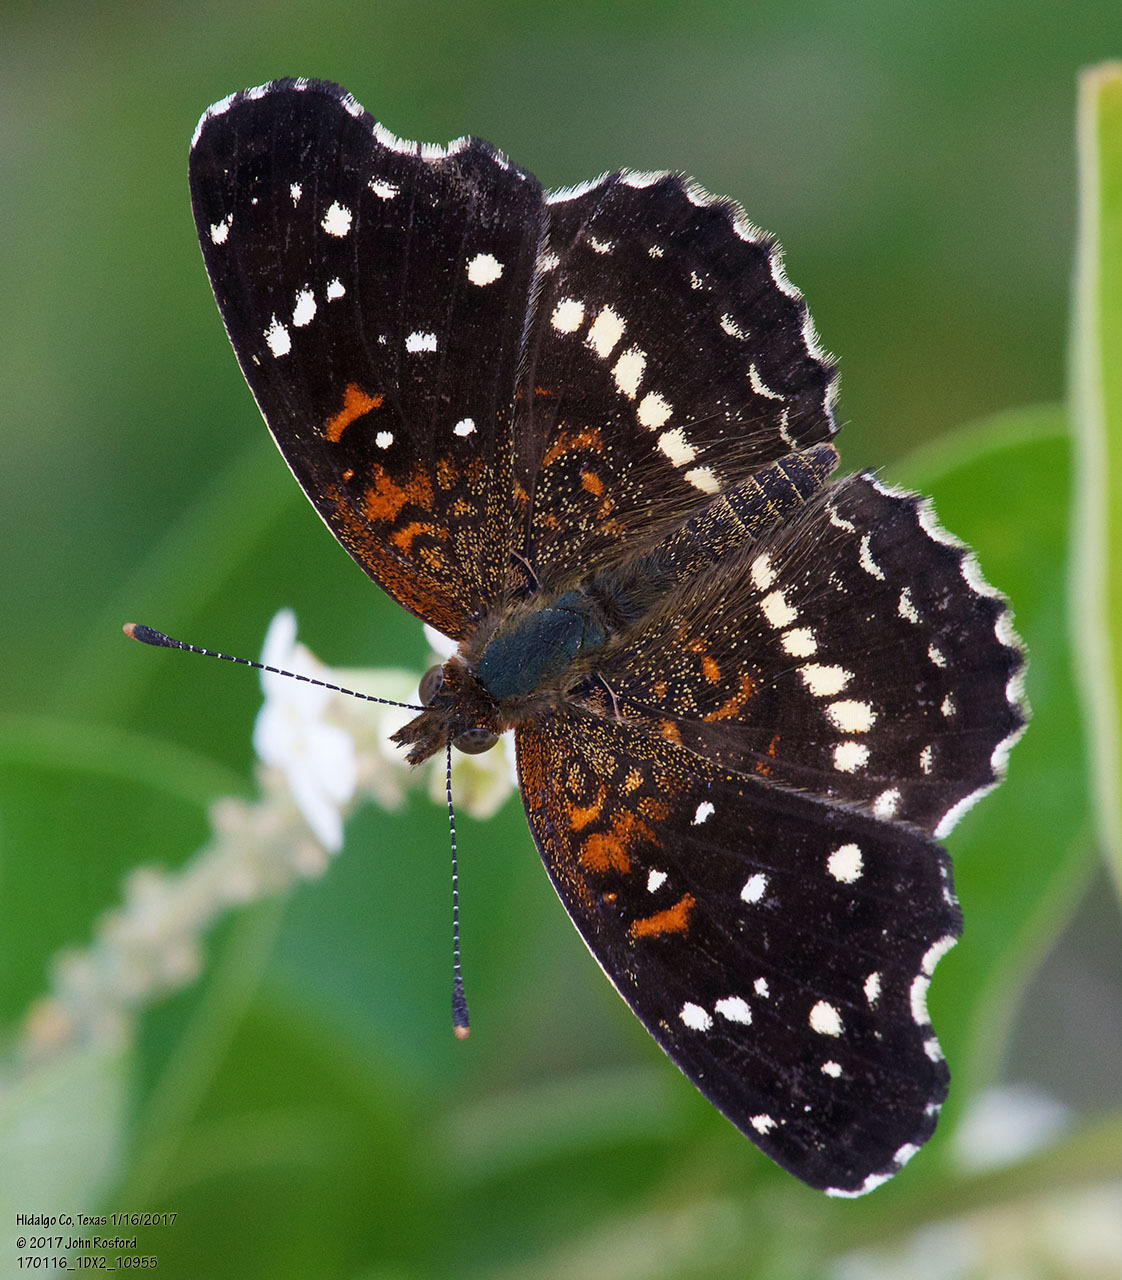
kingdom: Animalia
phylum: Arthropoda
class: Insecta
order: Lepidoptera
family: Nymphalidae
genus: Anthanassa
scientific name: Anthanassa texana
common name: Texan crescent
